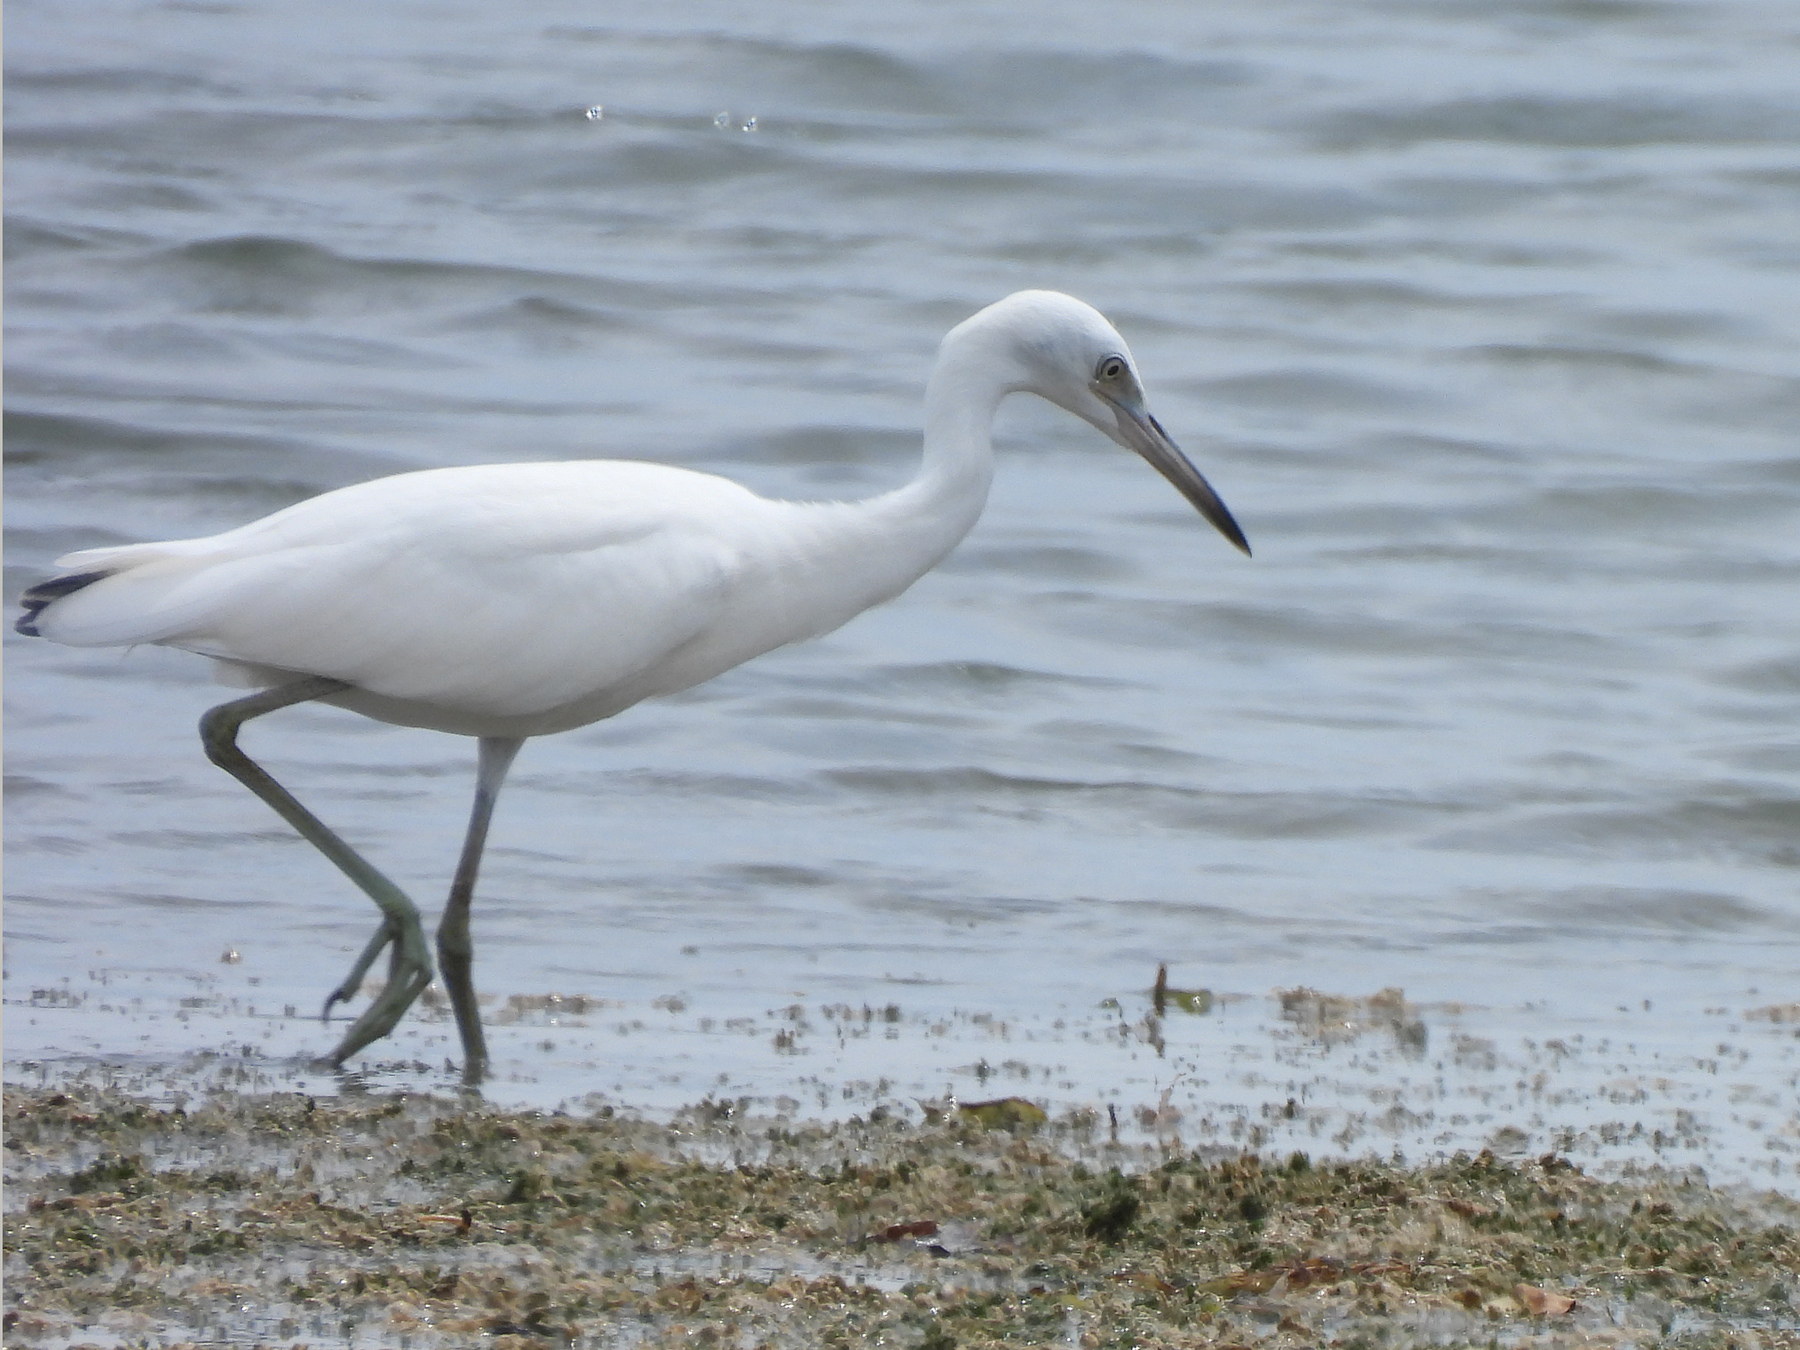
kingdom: Animalia
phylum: Chordata
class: Aves
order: Pelecaniformes
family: Ardeidae
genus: Egretta
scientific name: Egretta caerulea
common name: Little blue heron
